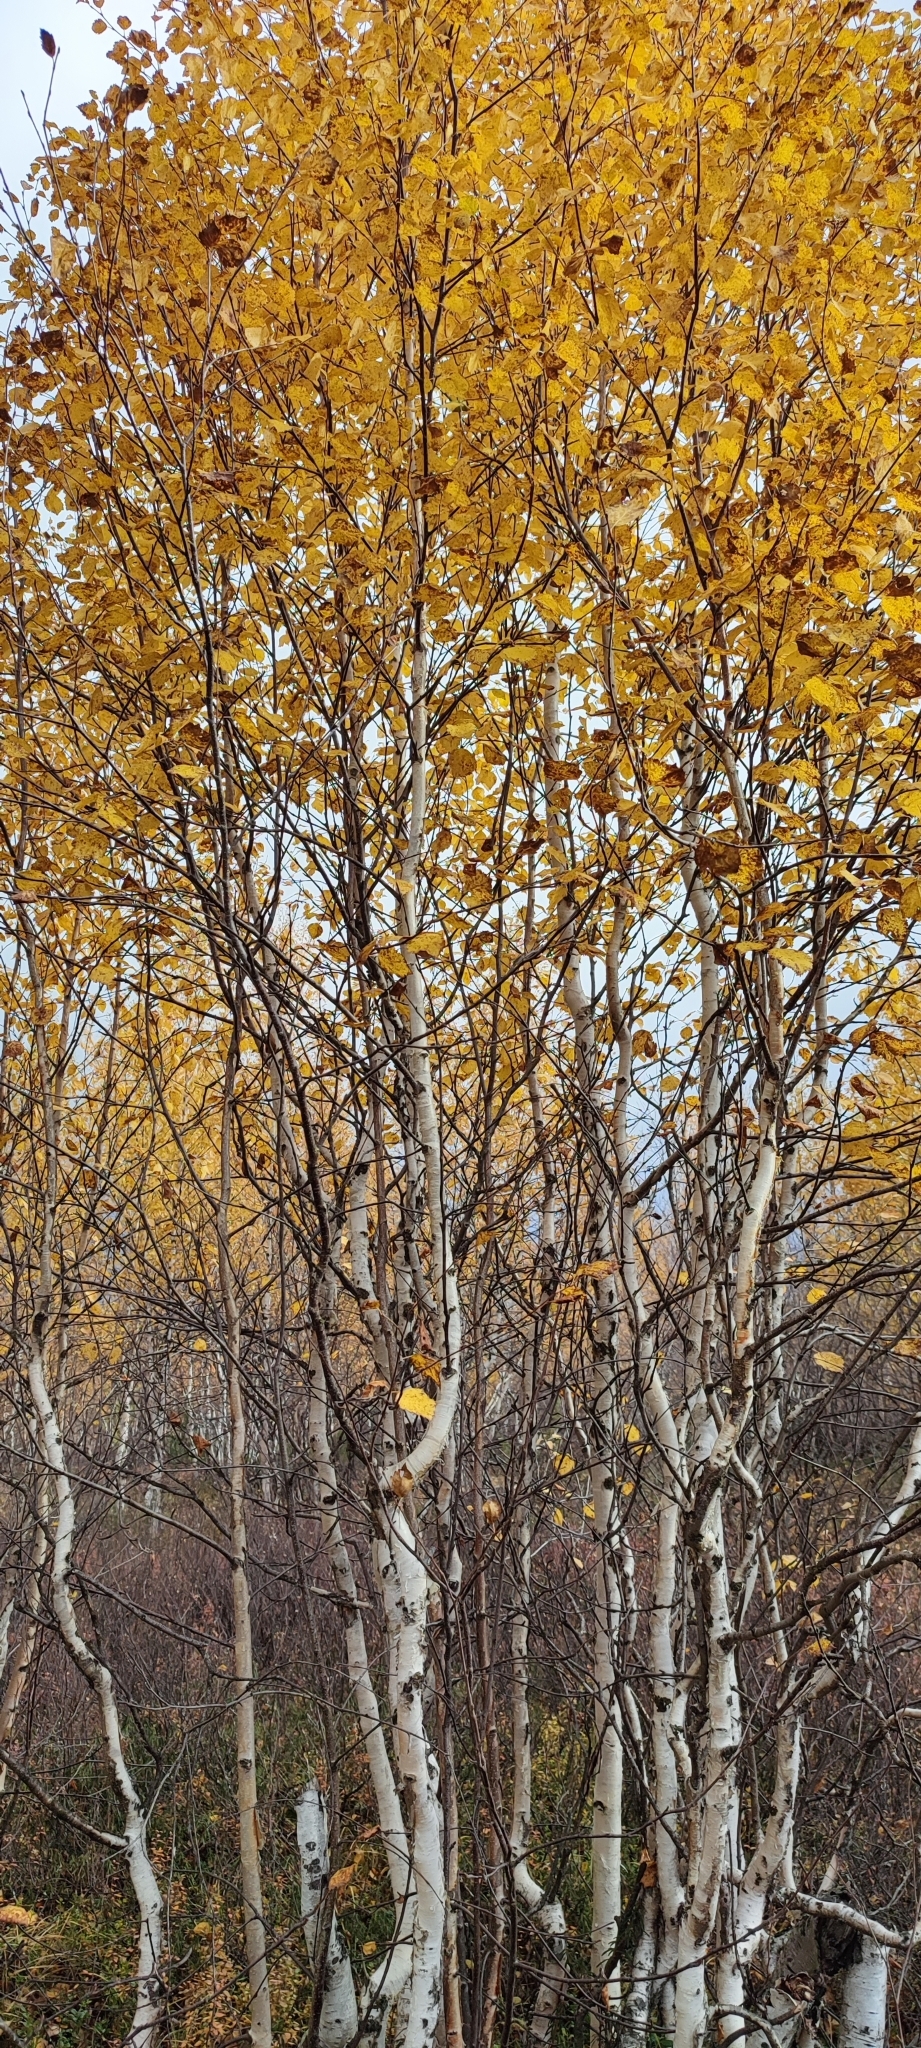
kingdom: Plantae
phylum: Tracheophyta
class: Magnoliopsida
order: Fagales
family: Betulaceae
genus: Betula
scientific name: Betula pubescens
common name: Downy birch
